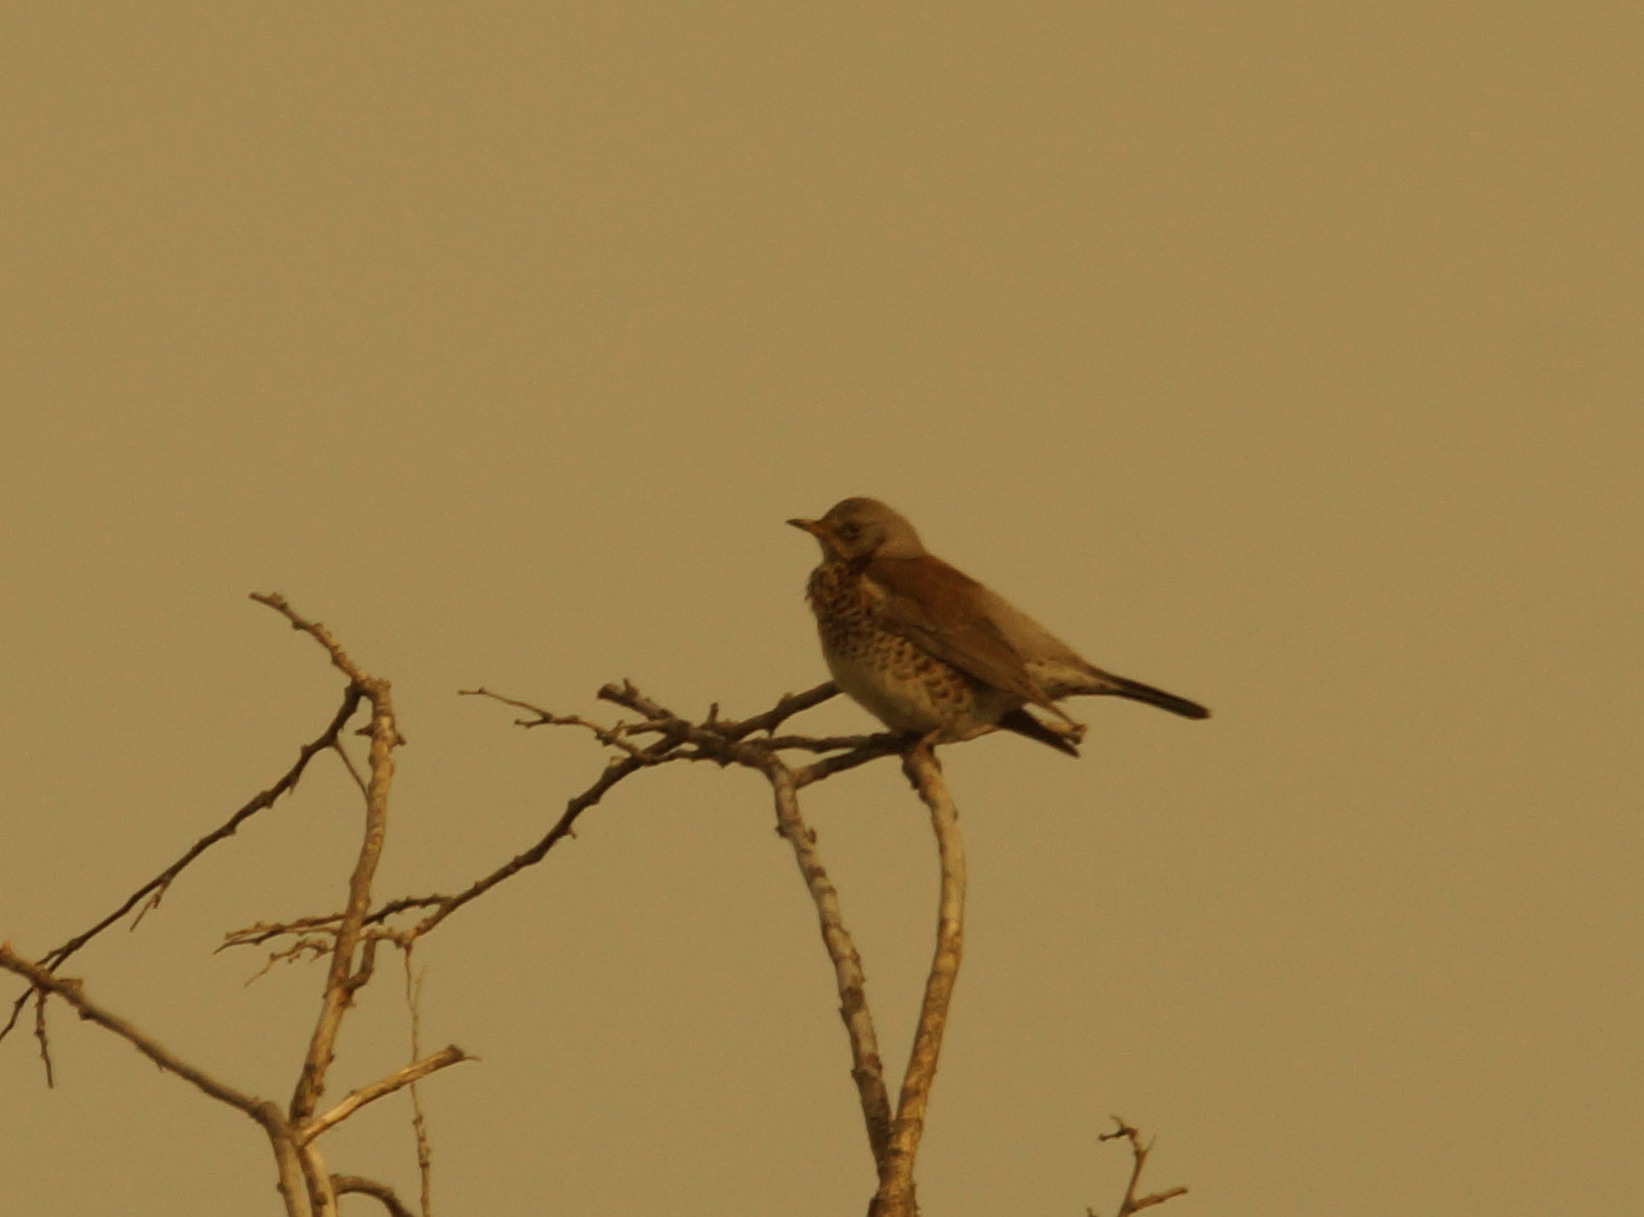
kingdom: Animalia
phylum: Chordata
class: Aves
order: Passeriformes
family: Turdidae
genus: Turdus
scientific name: Turdus pilaris
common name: Fieldfare
